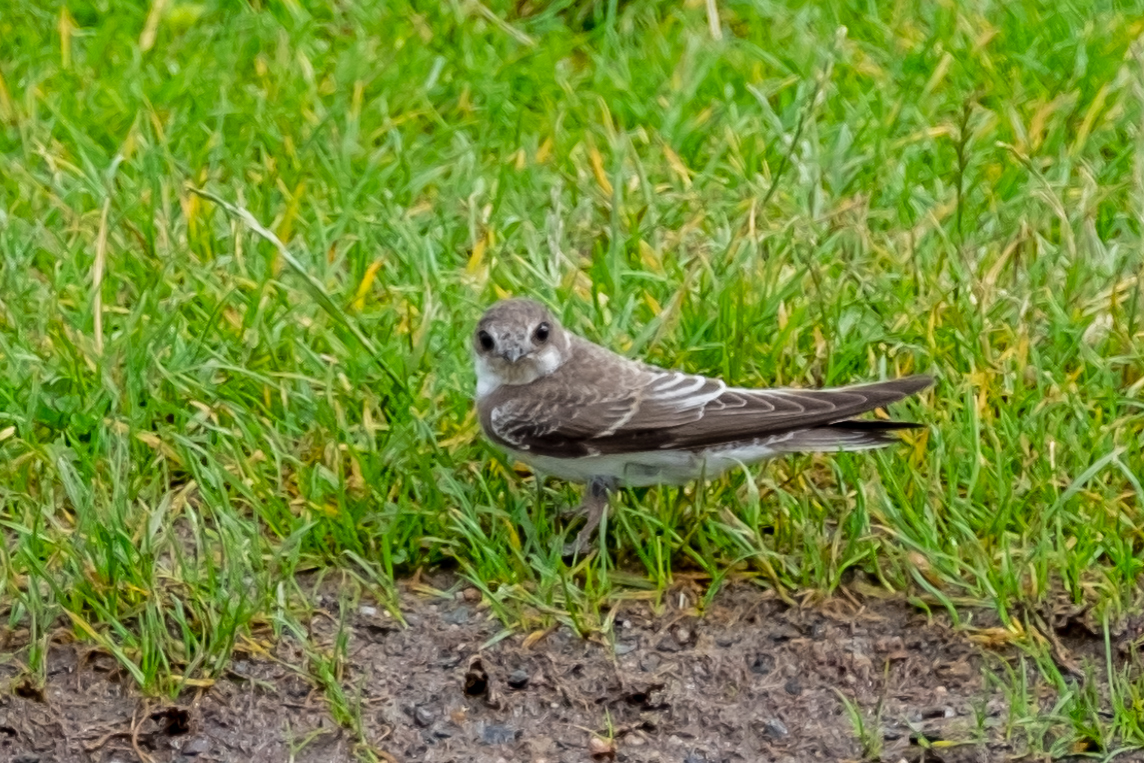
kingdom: Animalia
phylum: Chordata
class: Aves
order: Passeriformes
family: Hirundinidae
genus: Riparia
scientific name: Riparia riparia
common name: Sand martin
